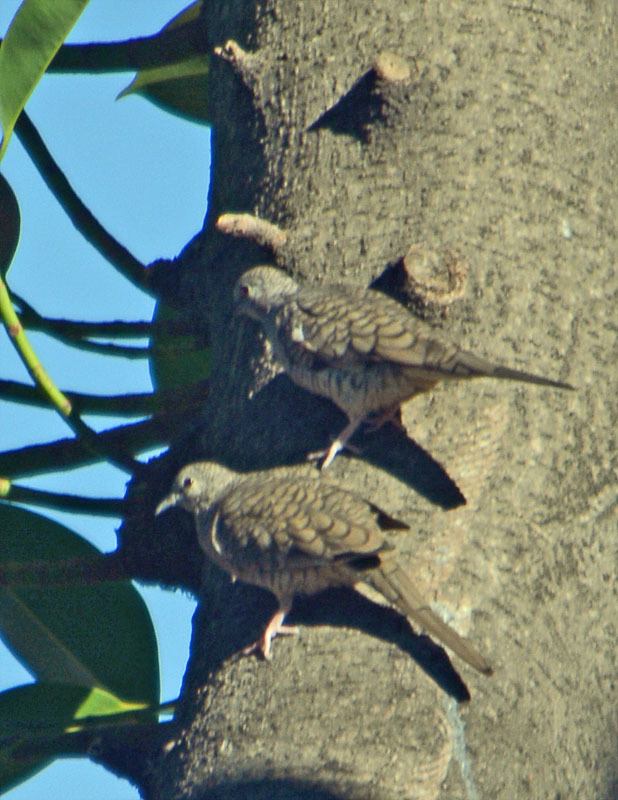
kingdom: Animalia
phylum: Chordata
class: Aves
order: Columbiformes
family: Columbidae
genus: Columbina
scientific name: Columbina inca
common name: Inca dove
